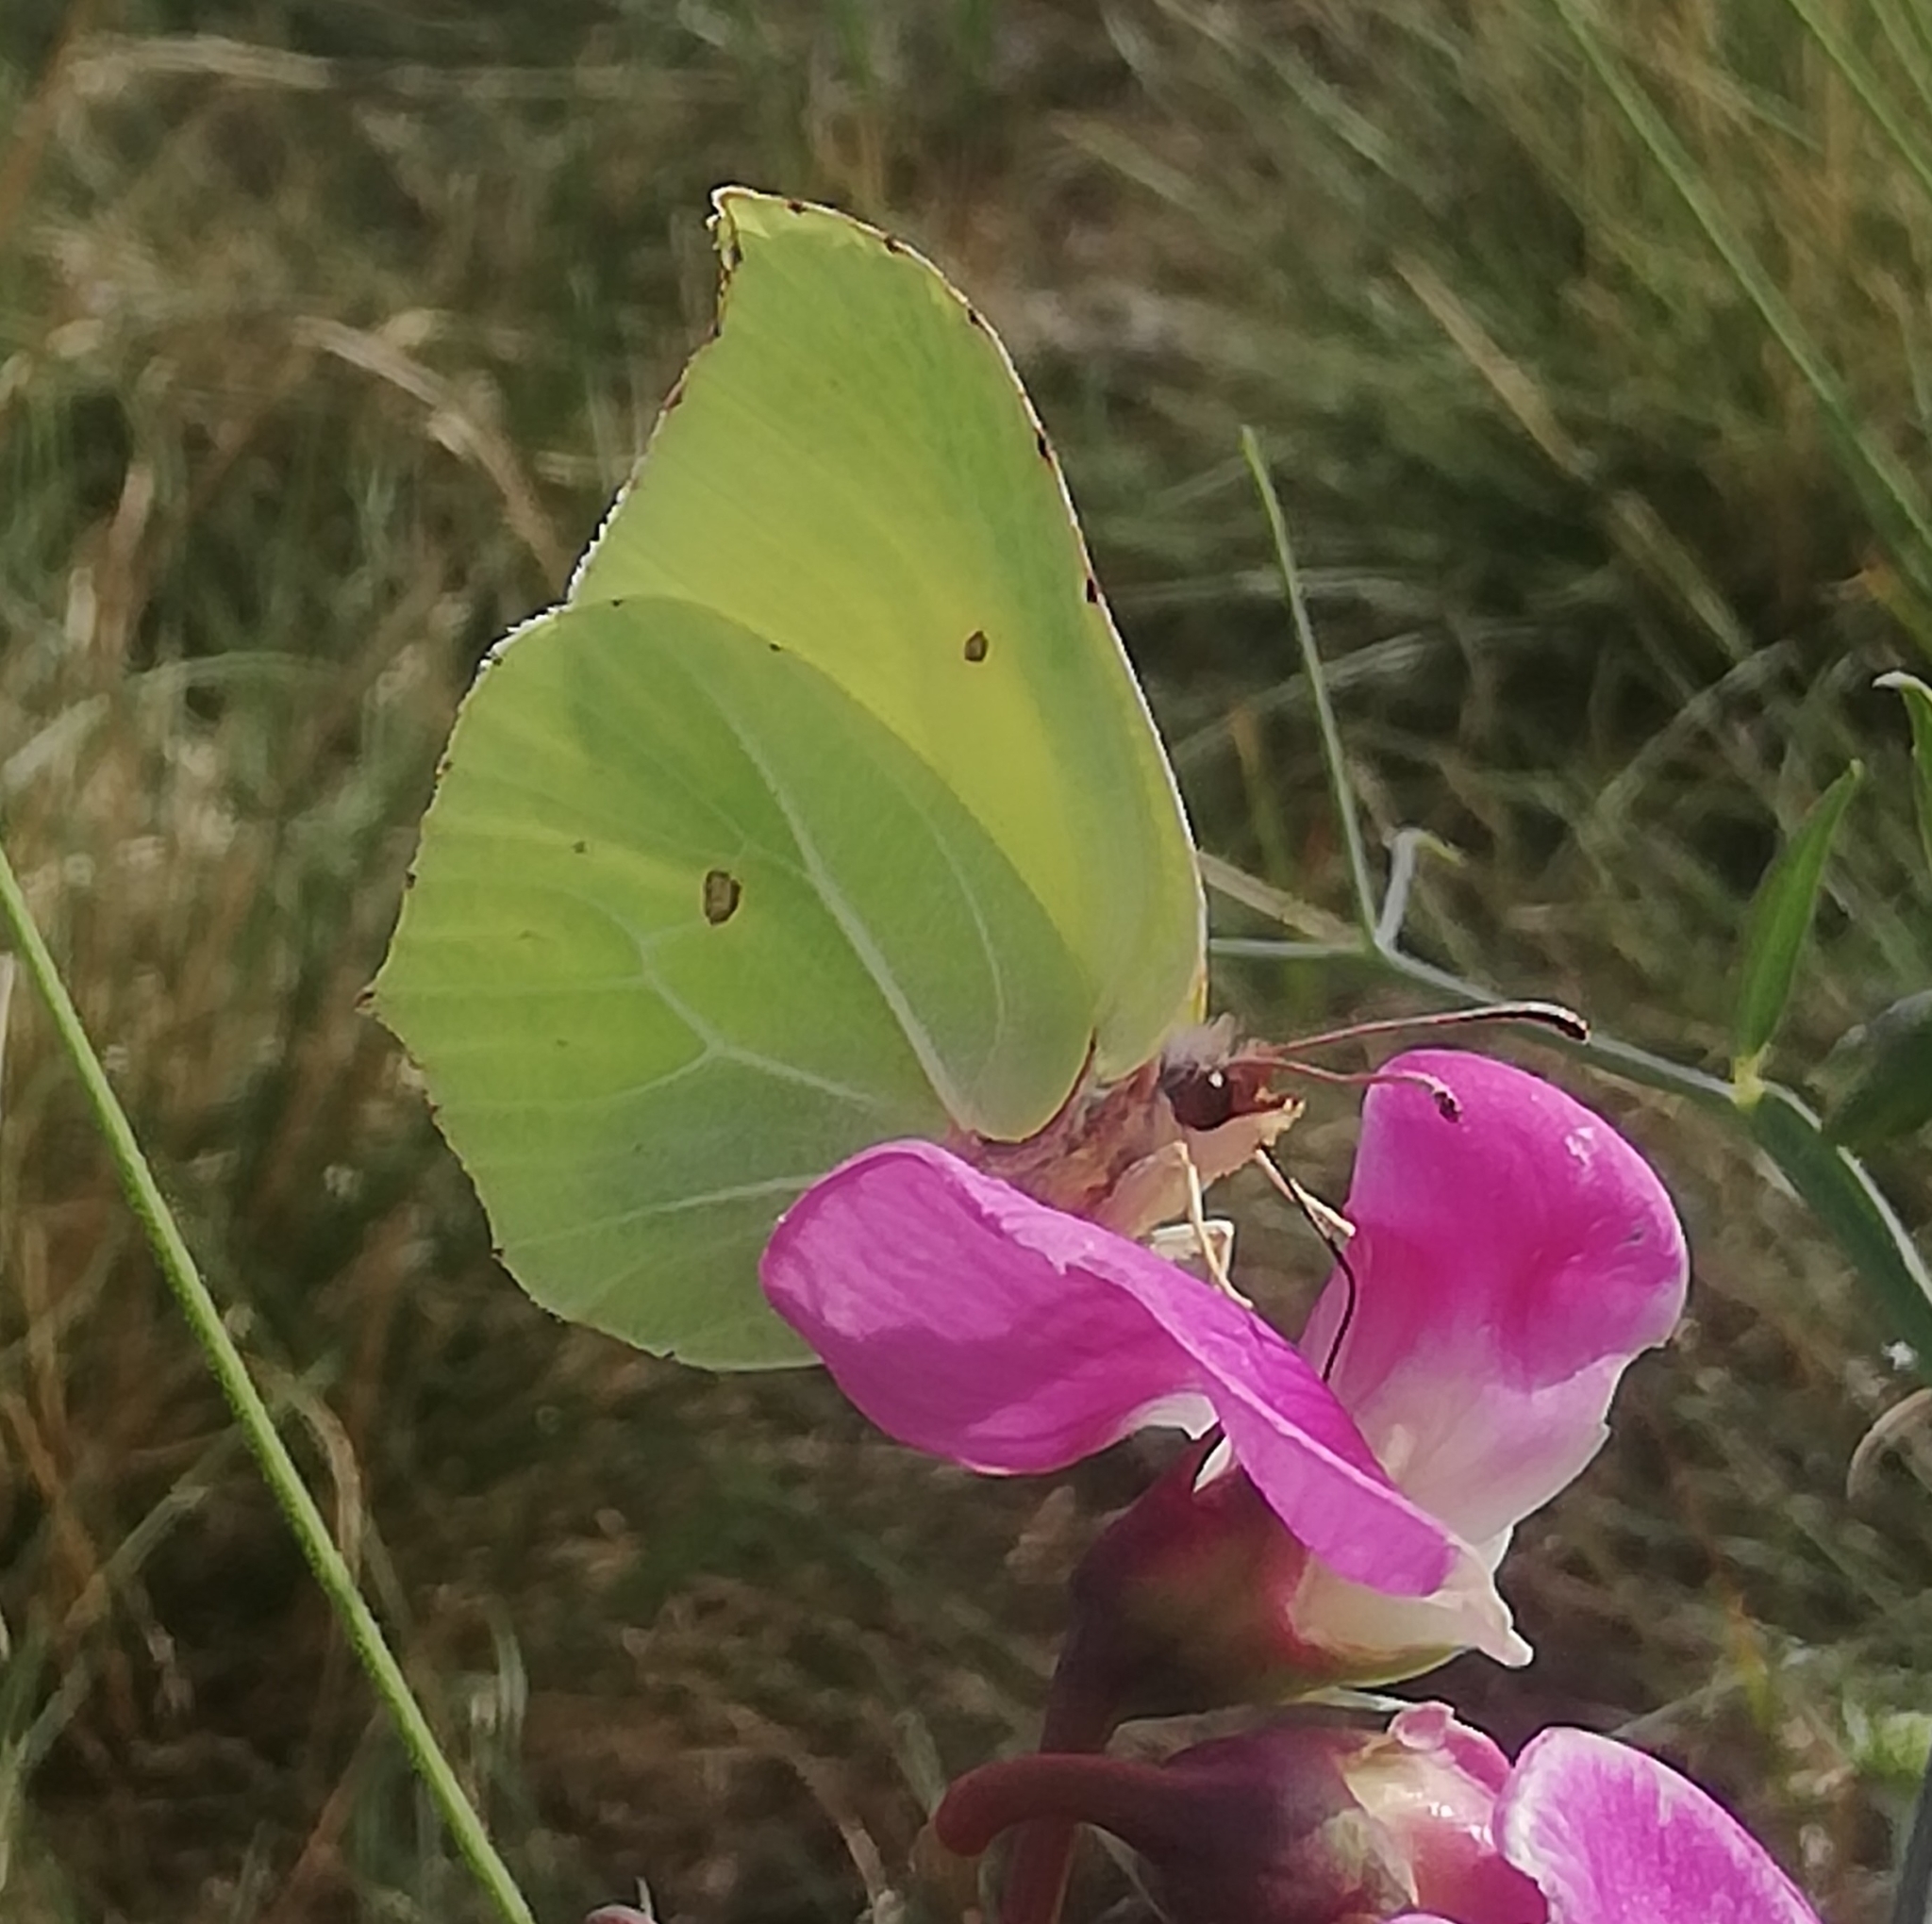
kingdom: Animalia
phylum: Arthropoda
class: Insecta
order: Lepidoptera
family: Pieridae
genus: Gonepteryx
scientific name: Gonepteryx rhamni
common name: Brimstone
